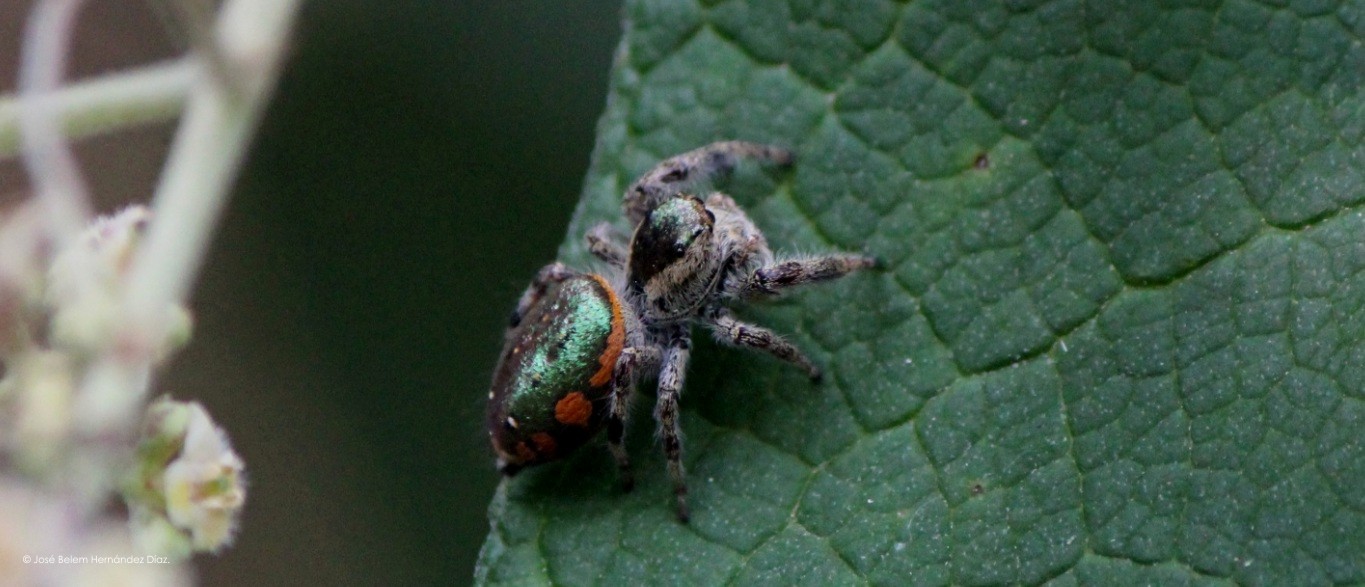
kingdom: Animalia
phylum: Arthropoda
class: Arachnida
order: Araneae
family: Salticidae
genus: Paraphidippus
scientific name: Paraphidippus aurantius
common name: Jumping spiders
